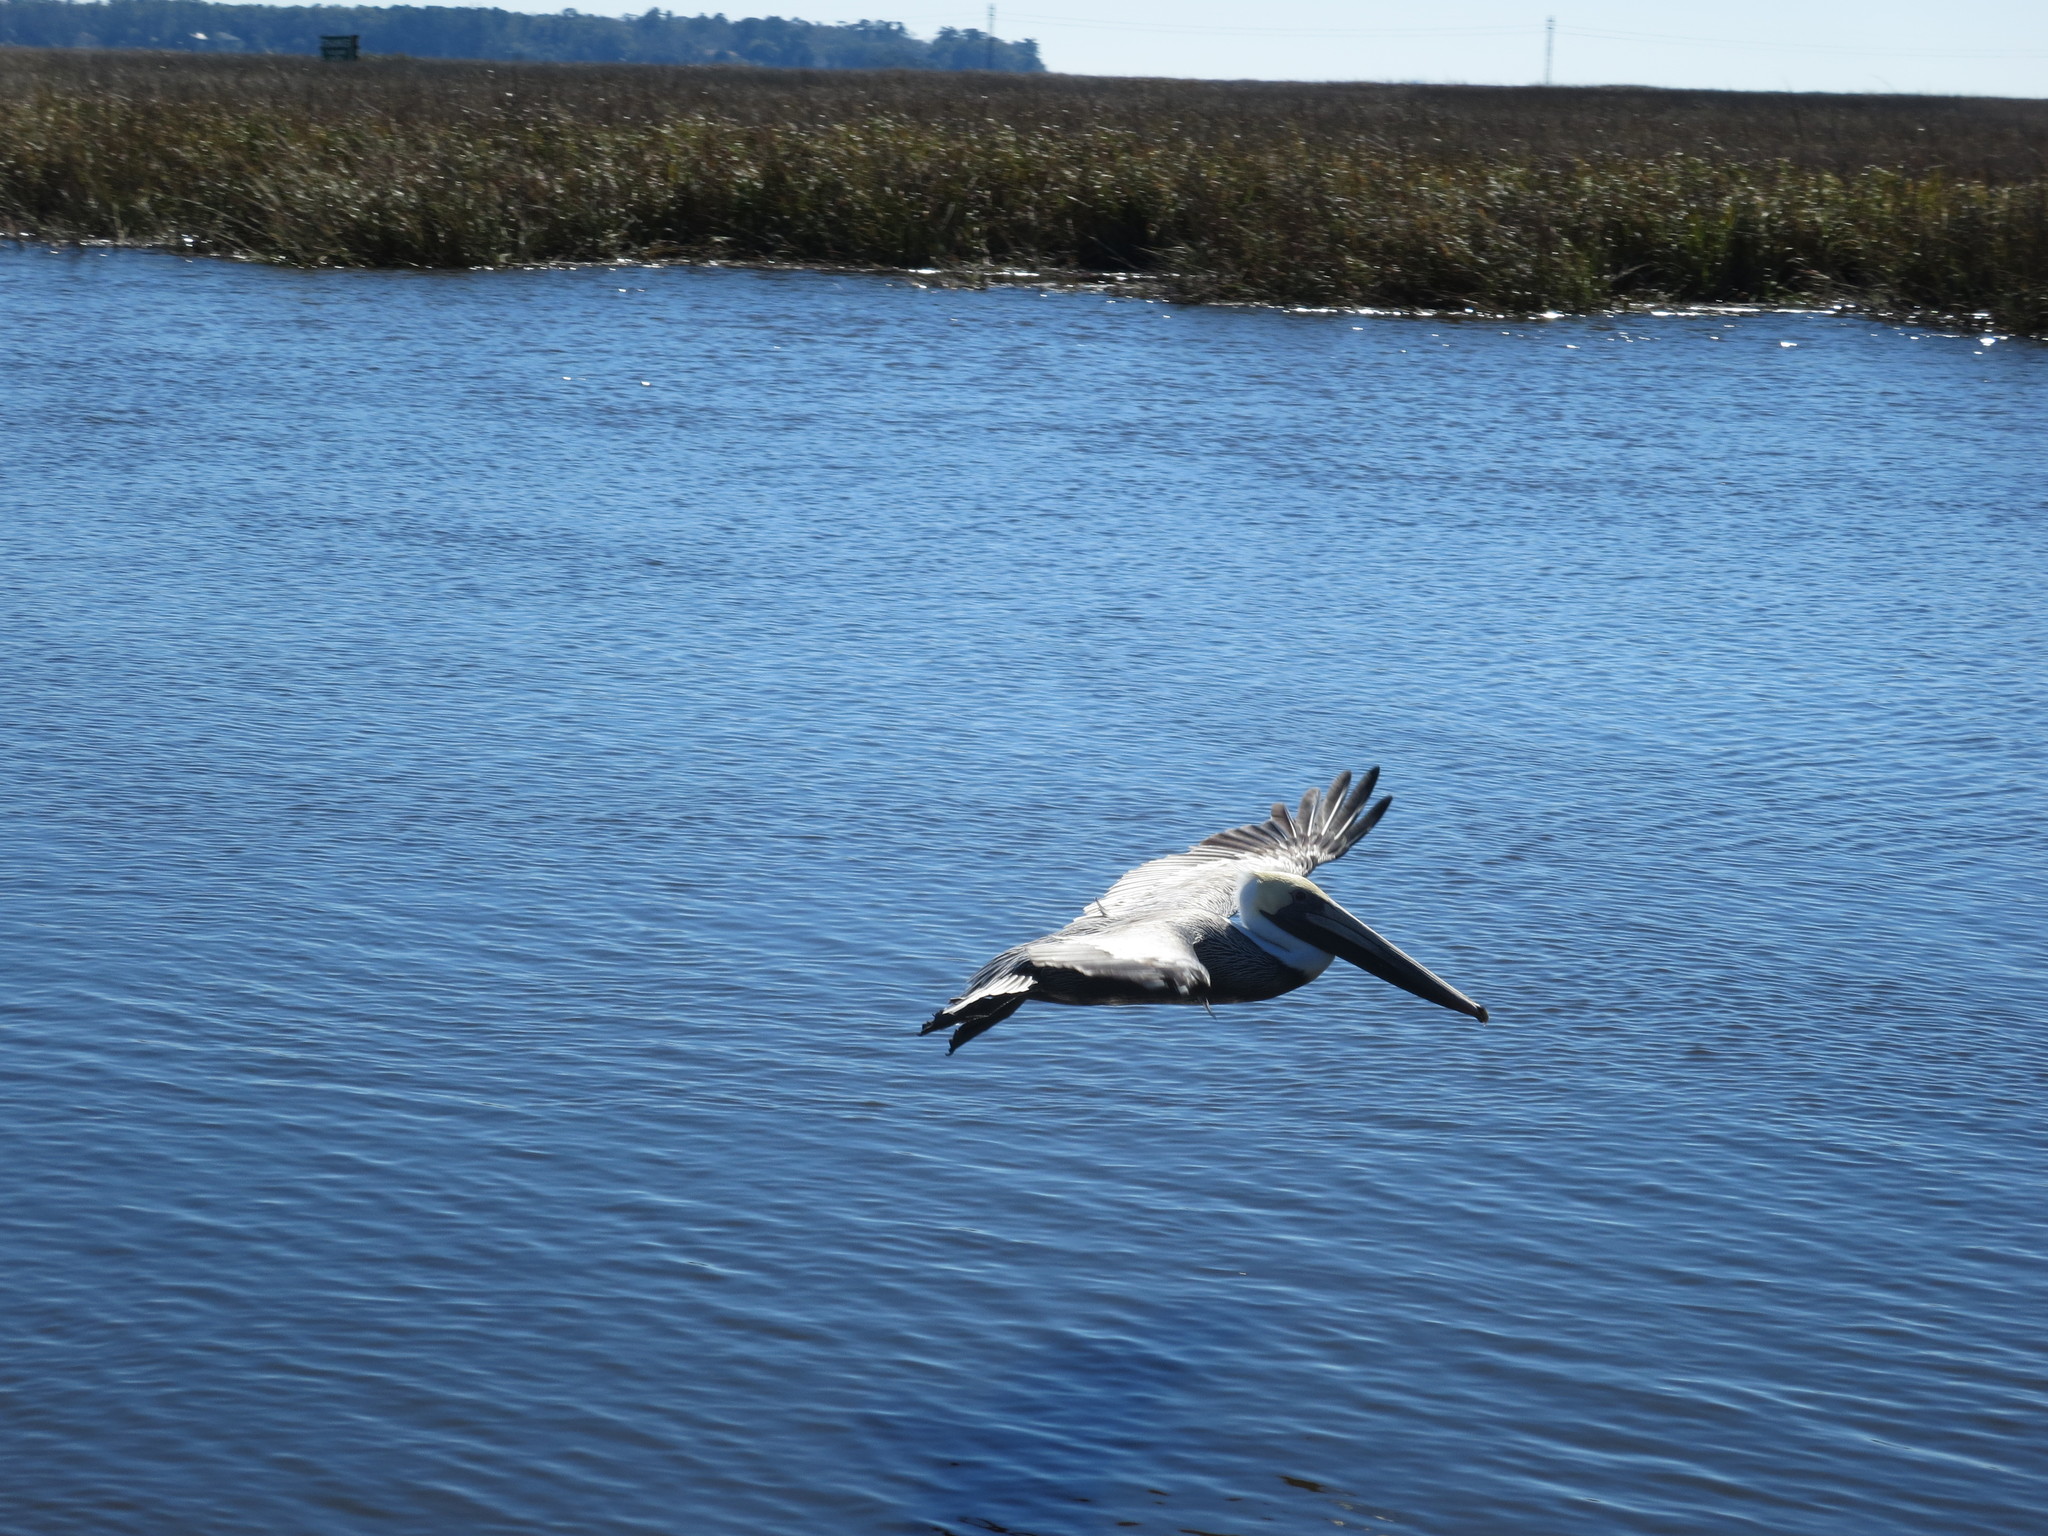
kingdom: Animalia
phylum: Chordata
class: Aves
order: Pelecaniformes
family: Pelecanidae
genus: Pelecanus
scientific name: Pelecanus occidentalis
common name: Brown pelican
